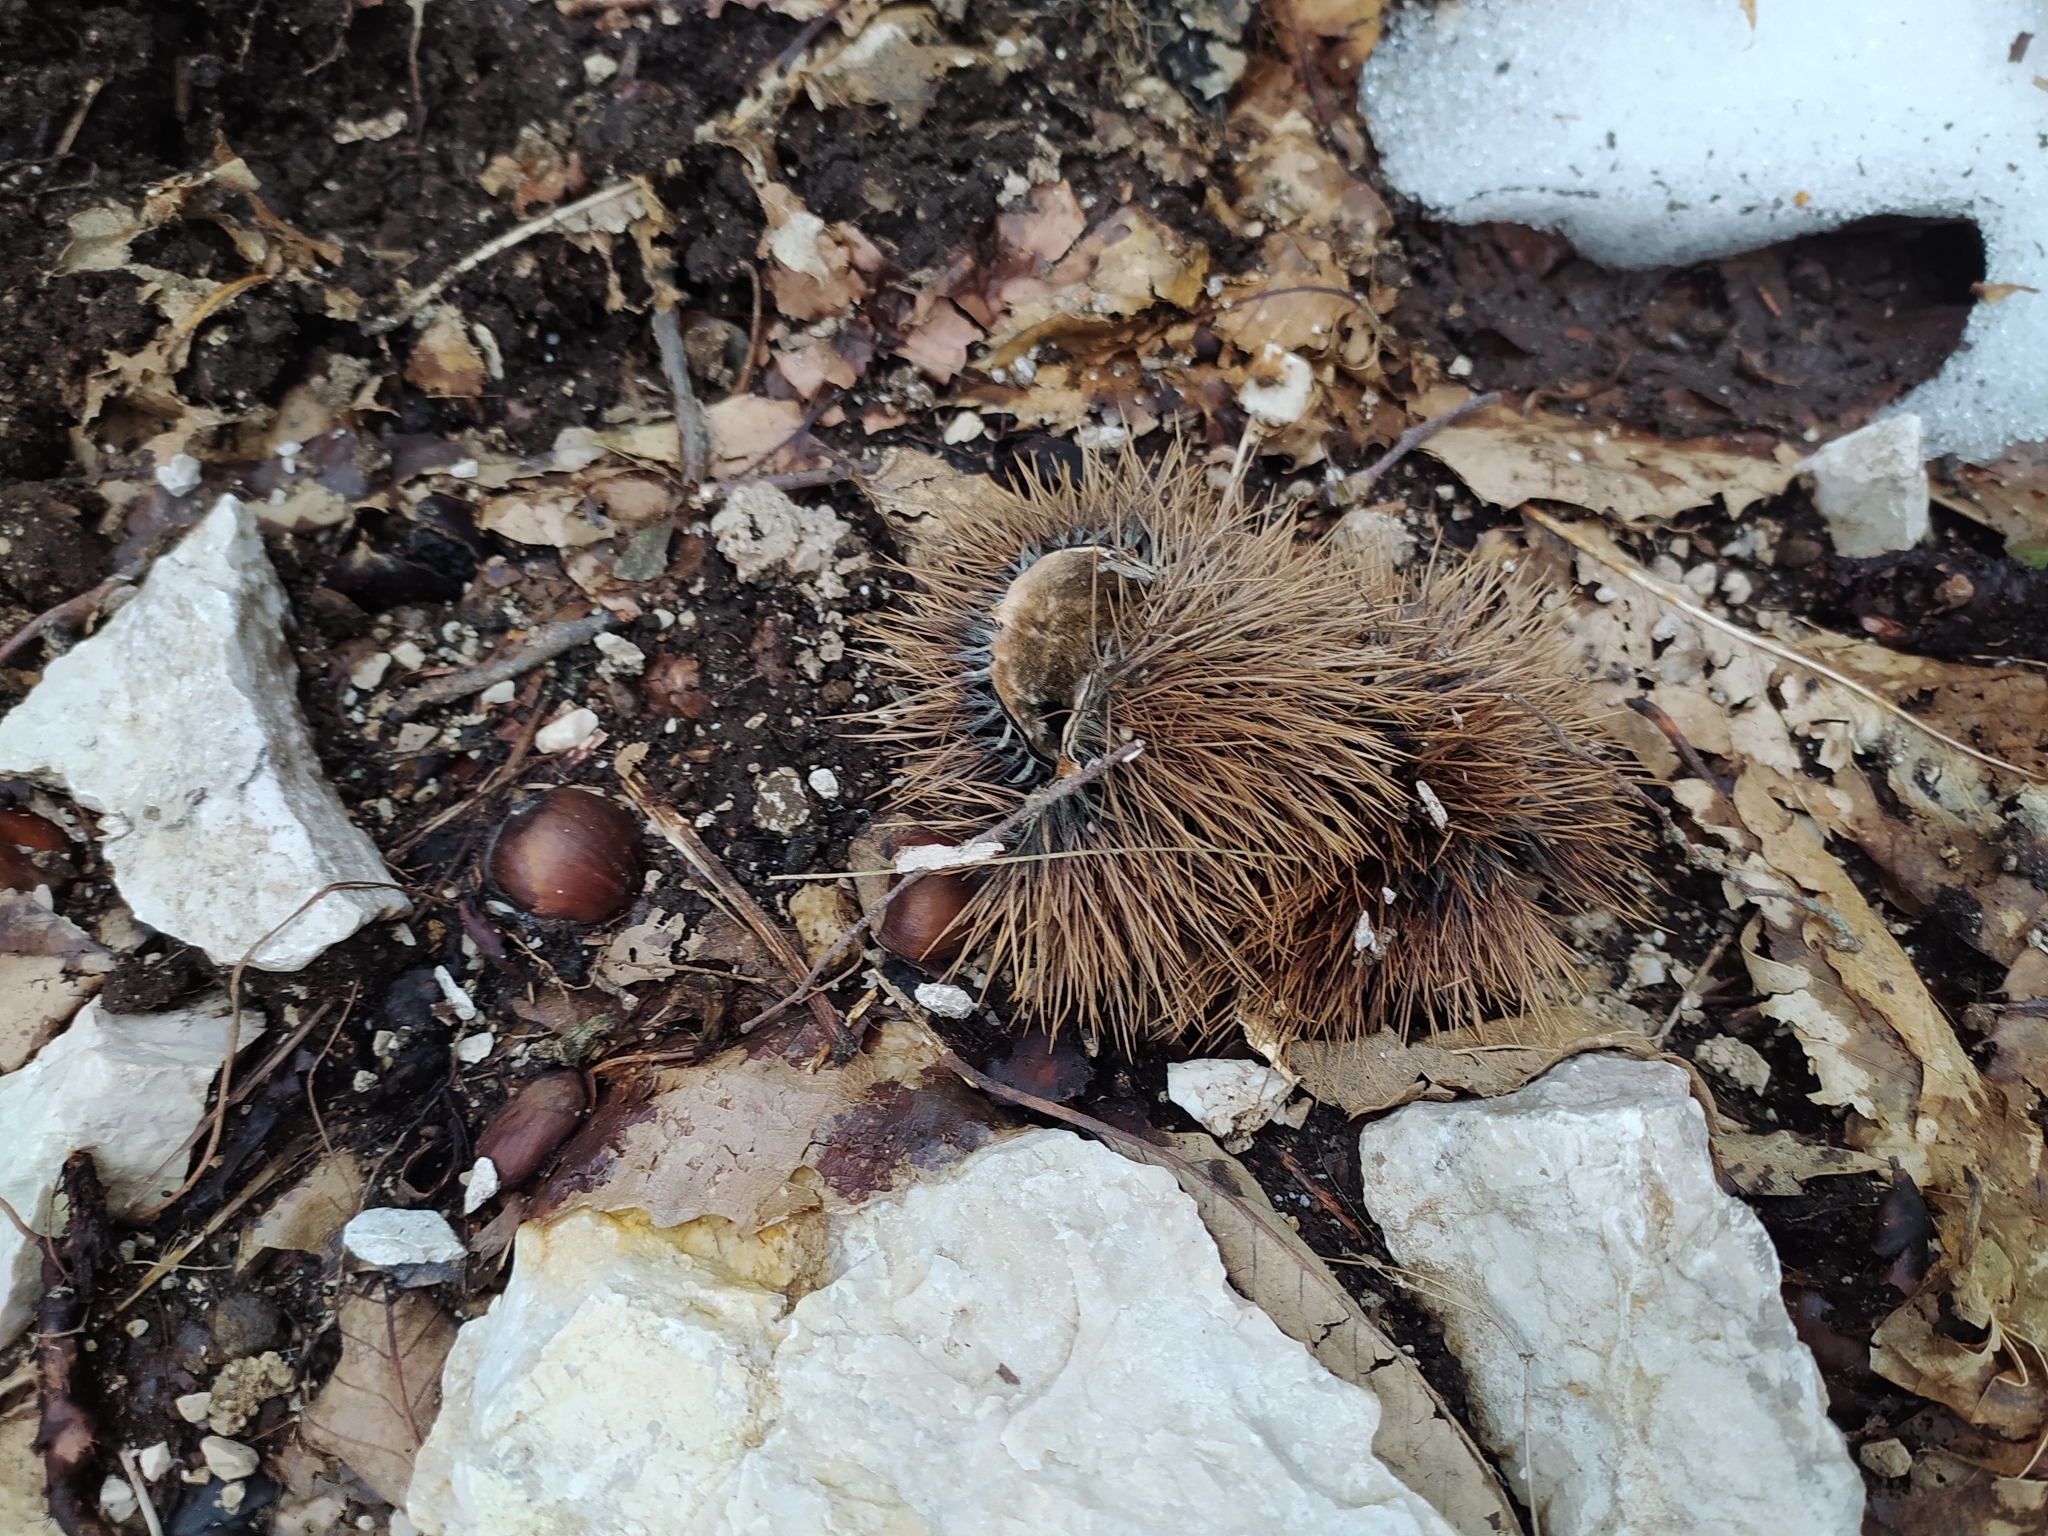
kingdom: Plantae
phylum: Tracheophyta
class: Magnoliopsida
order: Fagales
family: Fagaceae
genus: Castanea
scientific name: Castanea sativa
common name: Sweet chestnut
